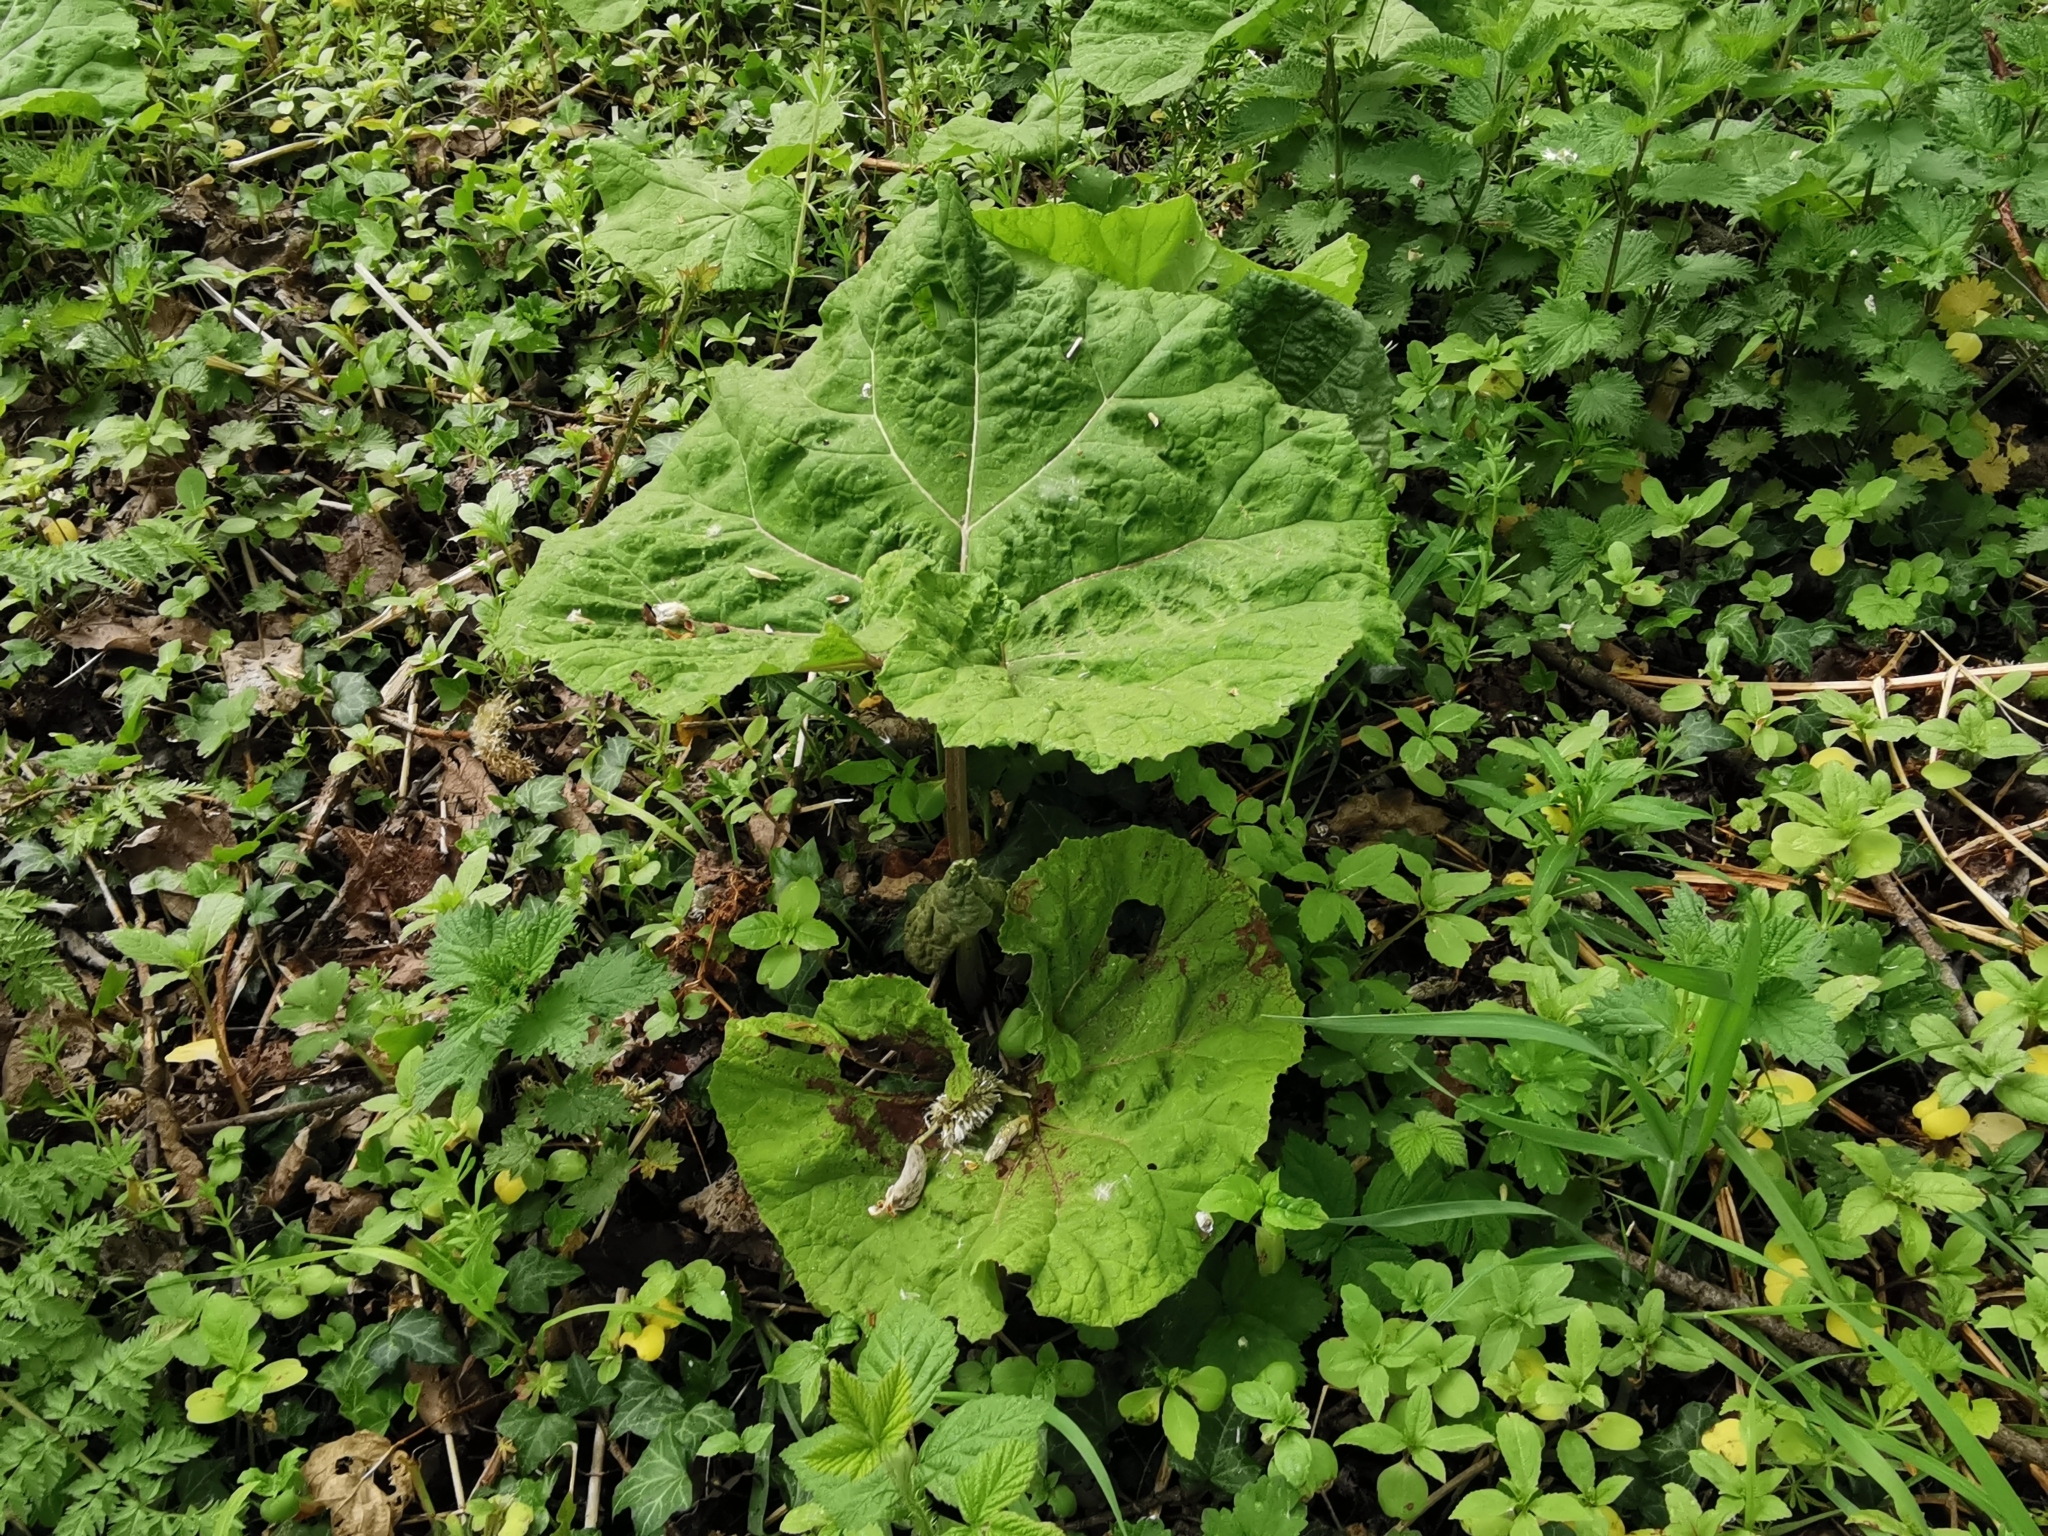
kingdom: Plantae
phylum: Tracheophyta
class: Magnoliopsida
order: Asterales
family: Asteraceae
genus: Petasites
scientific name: Petasites hybridus
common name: Butterbur
